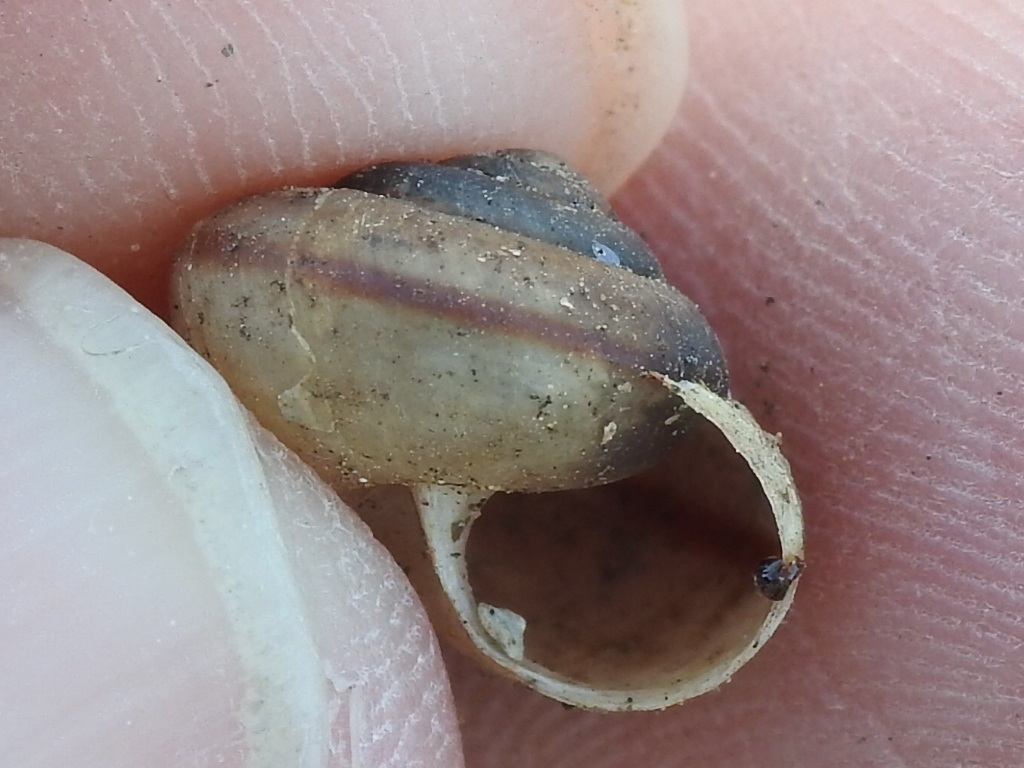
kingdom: Animalia
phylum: Mollusca
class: Gastropoda
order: Stylommatophora
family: Camaenidae
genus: Bradybaena
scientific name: Bradybaena similaris
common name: Asian trampsnail
